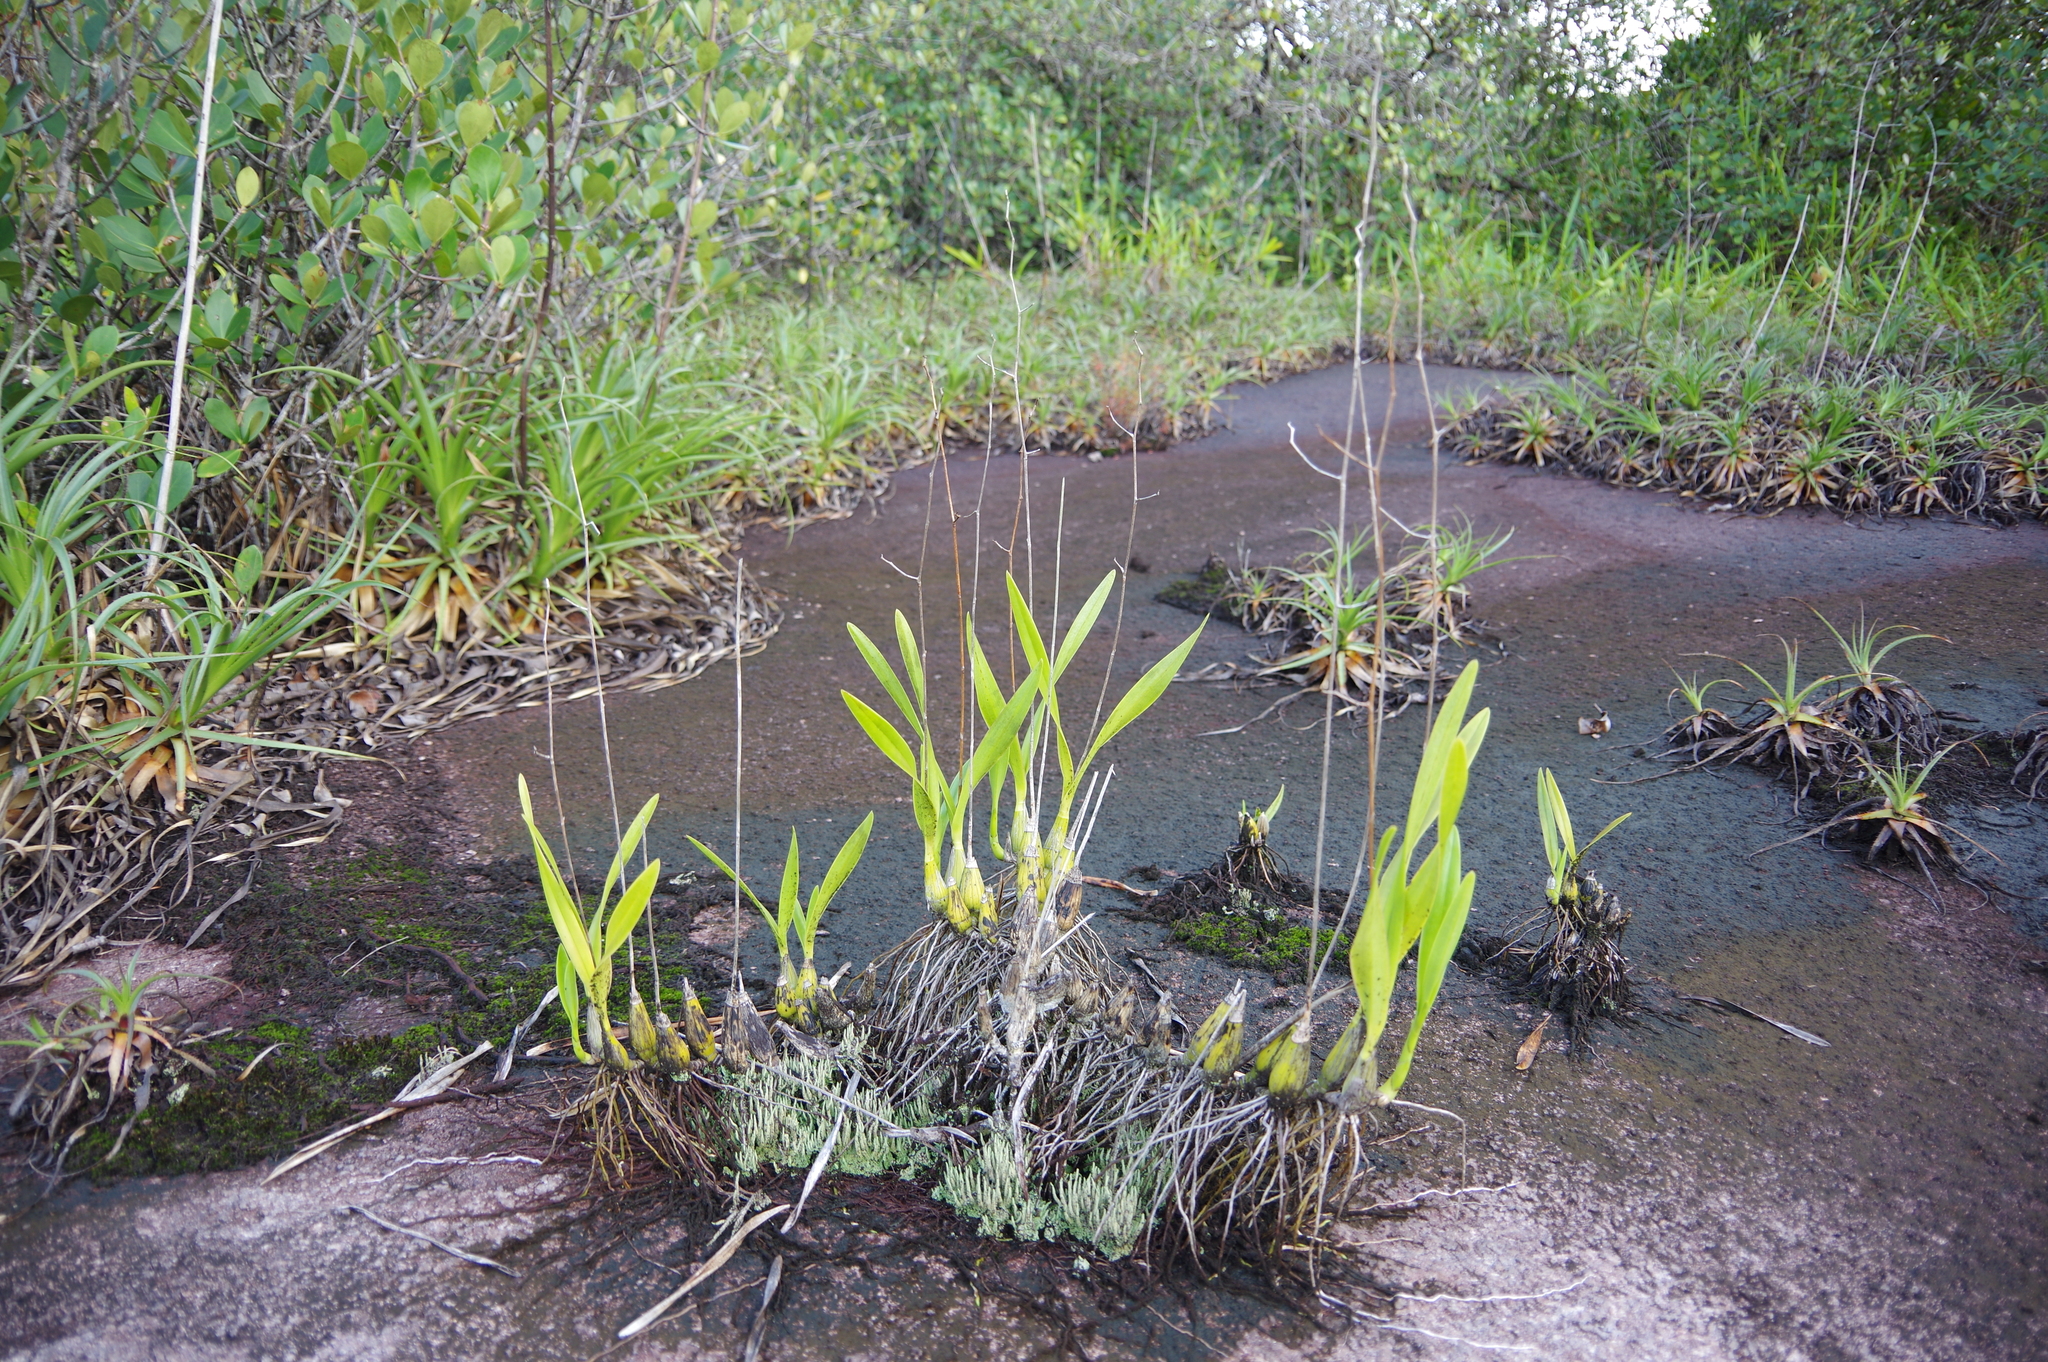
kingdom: Plantae
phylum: Tracheophyta
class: Liliopsida
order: Asparagales
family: Orchidaceae
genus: Encyclia
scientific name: Encyclia granitica
